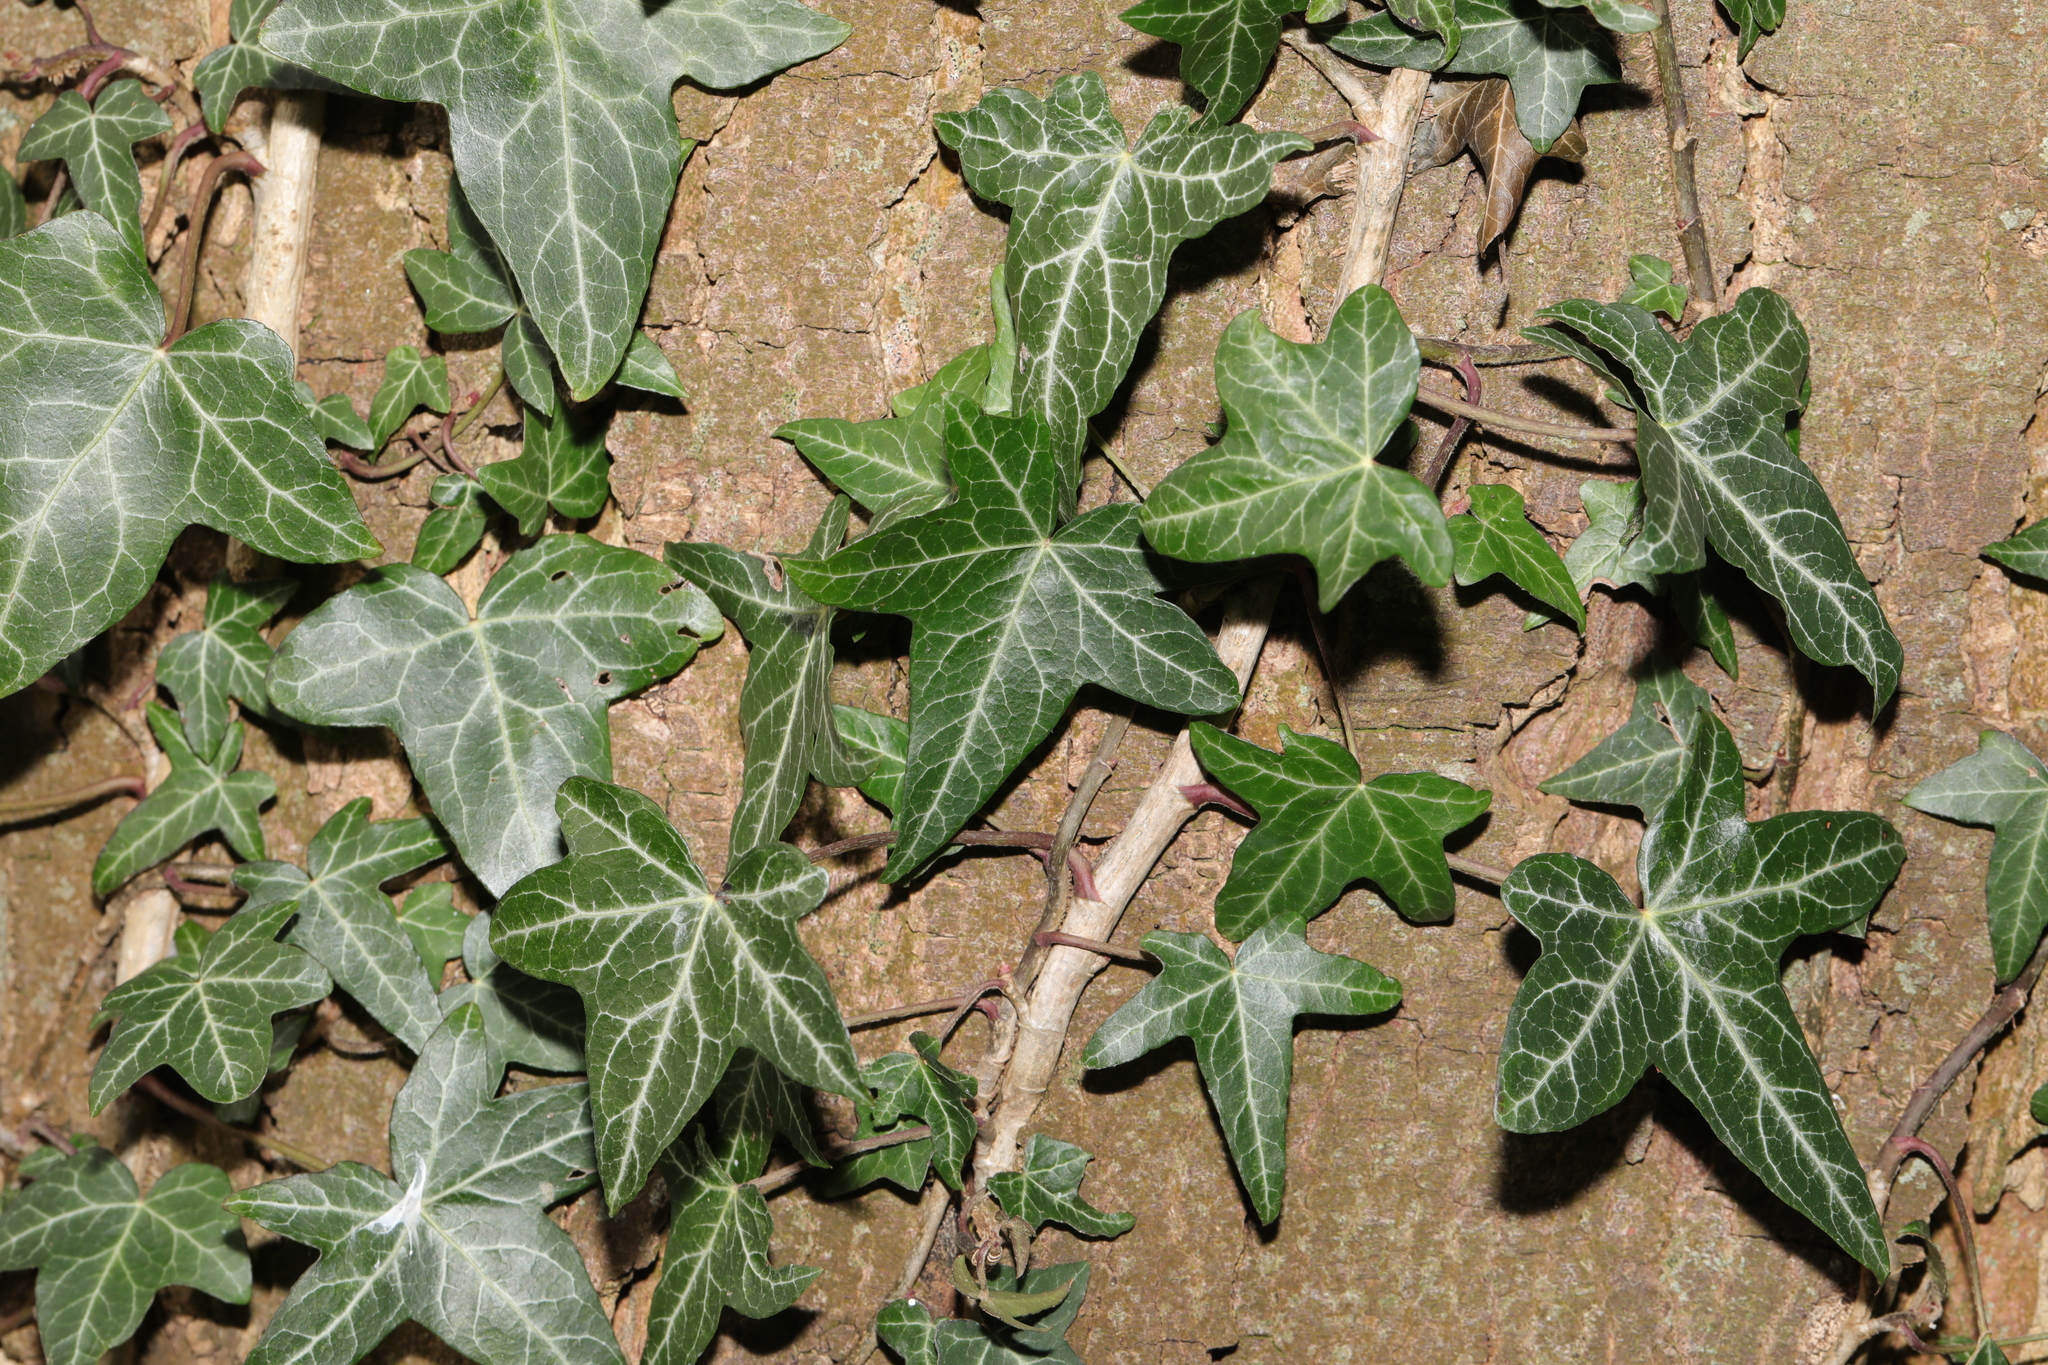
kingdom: Plantae
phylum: Tracheophyta
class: Magnoliopsida
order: Apiales
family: Araliaceae
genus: Hedera
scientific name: Hedera helix
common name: Ivy
